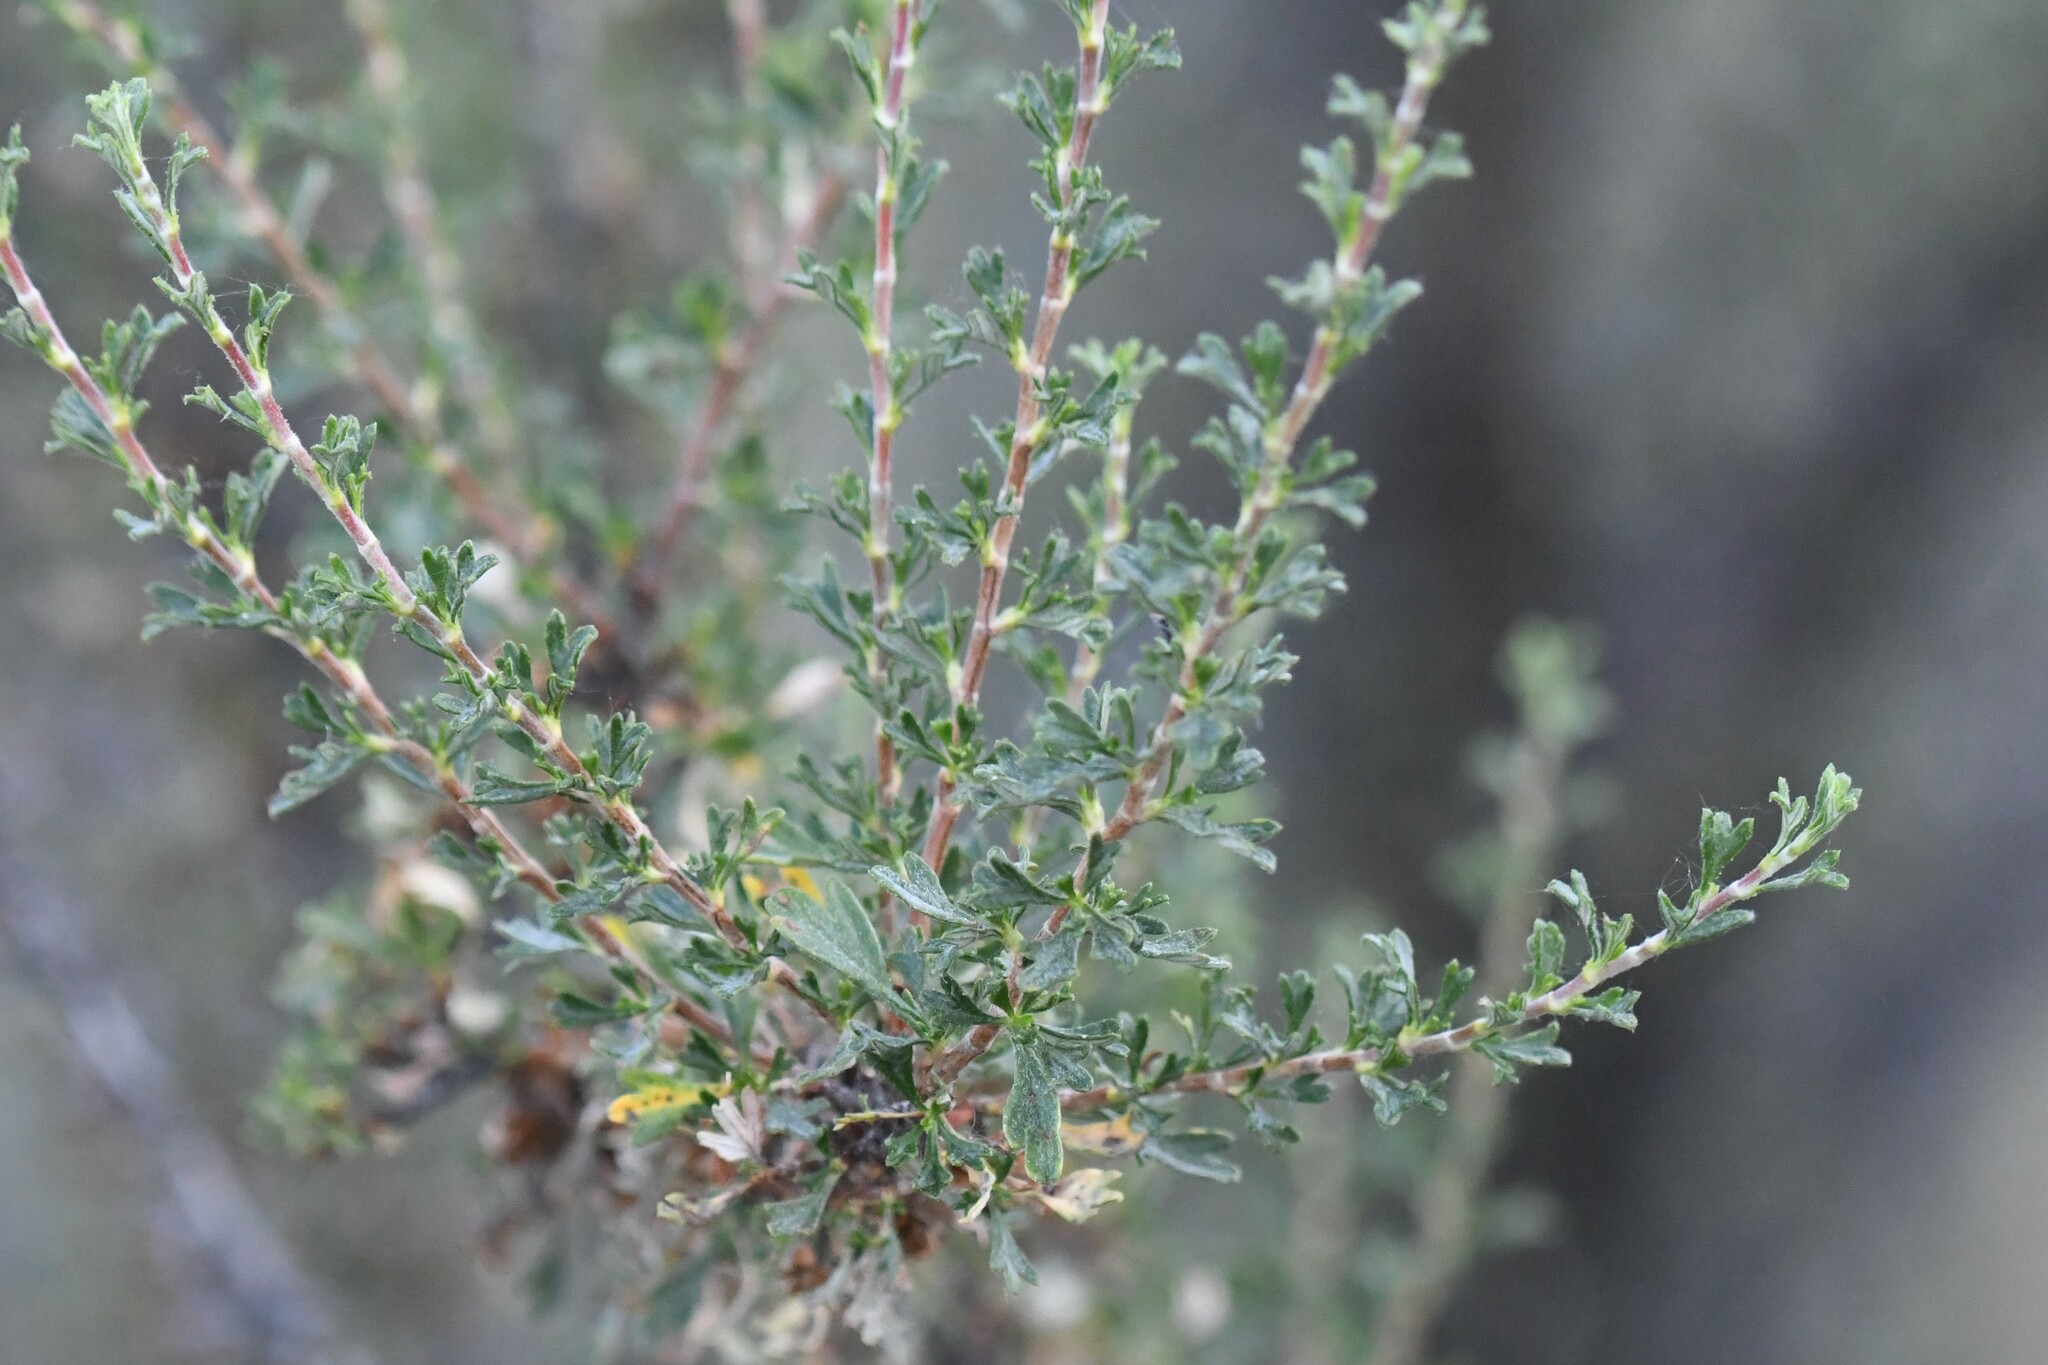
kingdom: Plantae
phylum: Tracheophyta
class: Magnoliopsida
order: Rosales
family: Rosaceae
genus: Purshia
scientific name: Purshia tridentata
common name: Antelope bitterbrush
